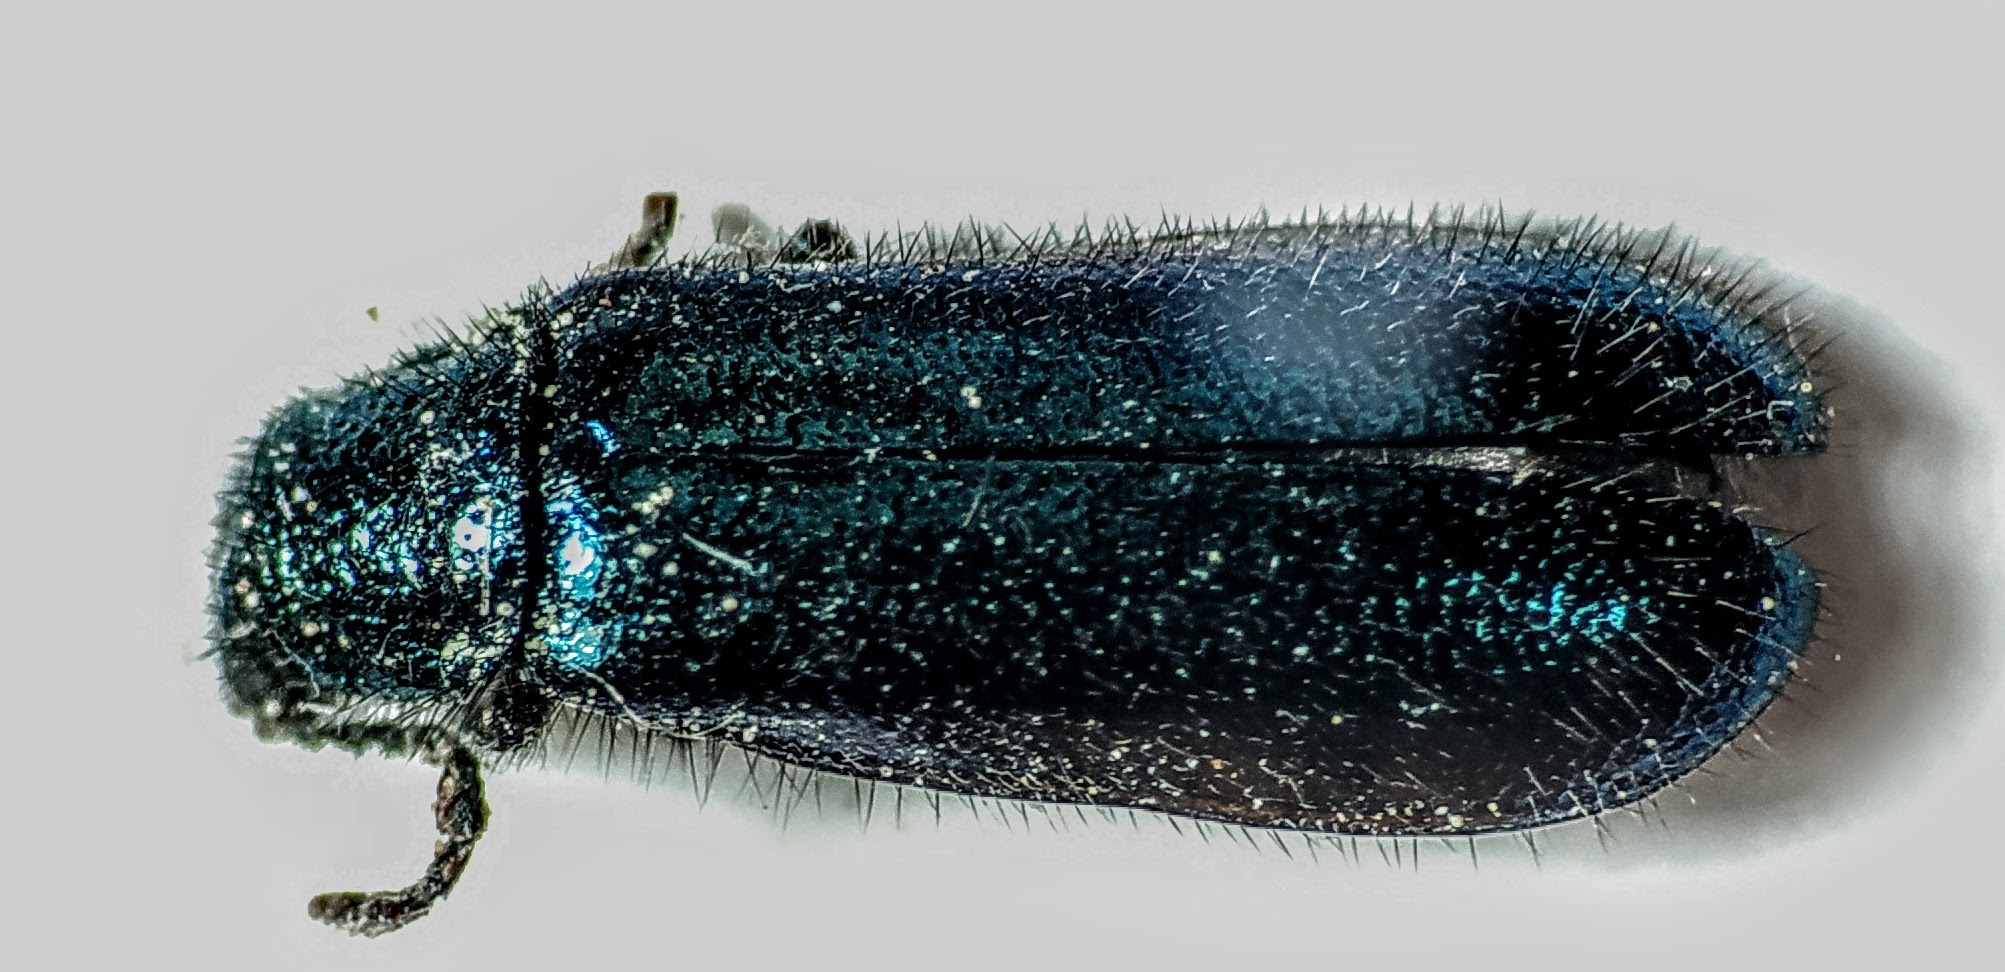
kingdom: Animalia
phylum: Arthropoda
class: Insecta
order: Coleoptera
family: Melyridae
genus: Dasytes
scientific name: Dasytes caeruleus
